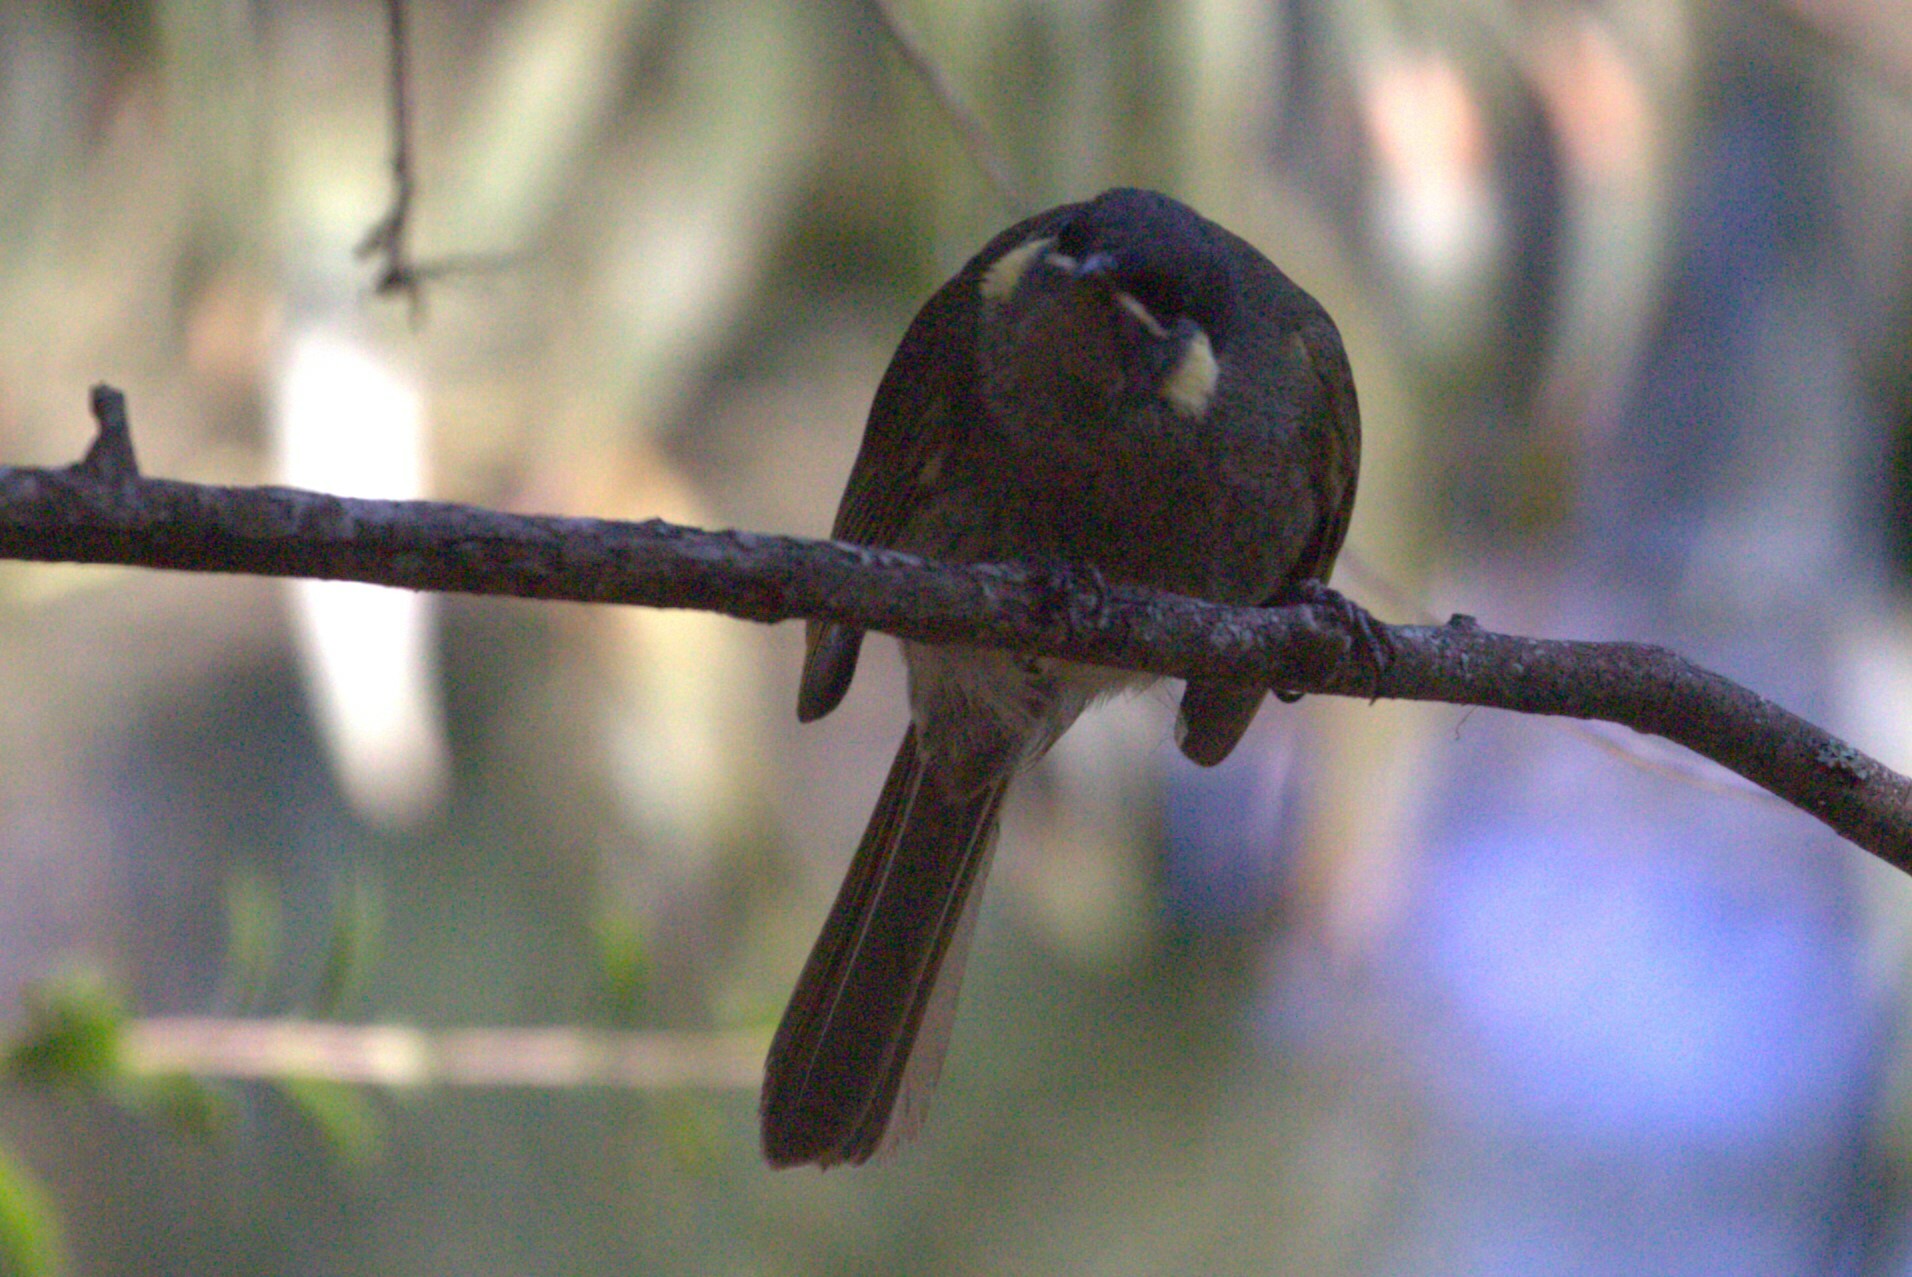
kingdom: Animalia
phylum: Chordata
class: Aves
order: Passeriformes
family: Meliphagidae
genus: Meliphaga
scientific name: Meliphaga lewinii
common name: Lewin's honeyeater
